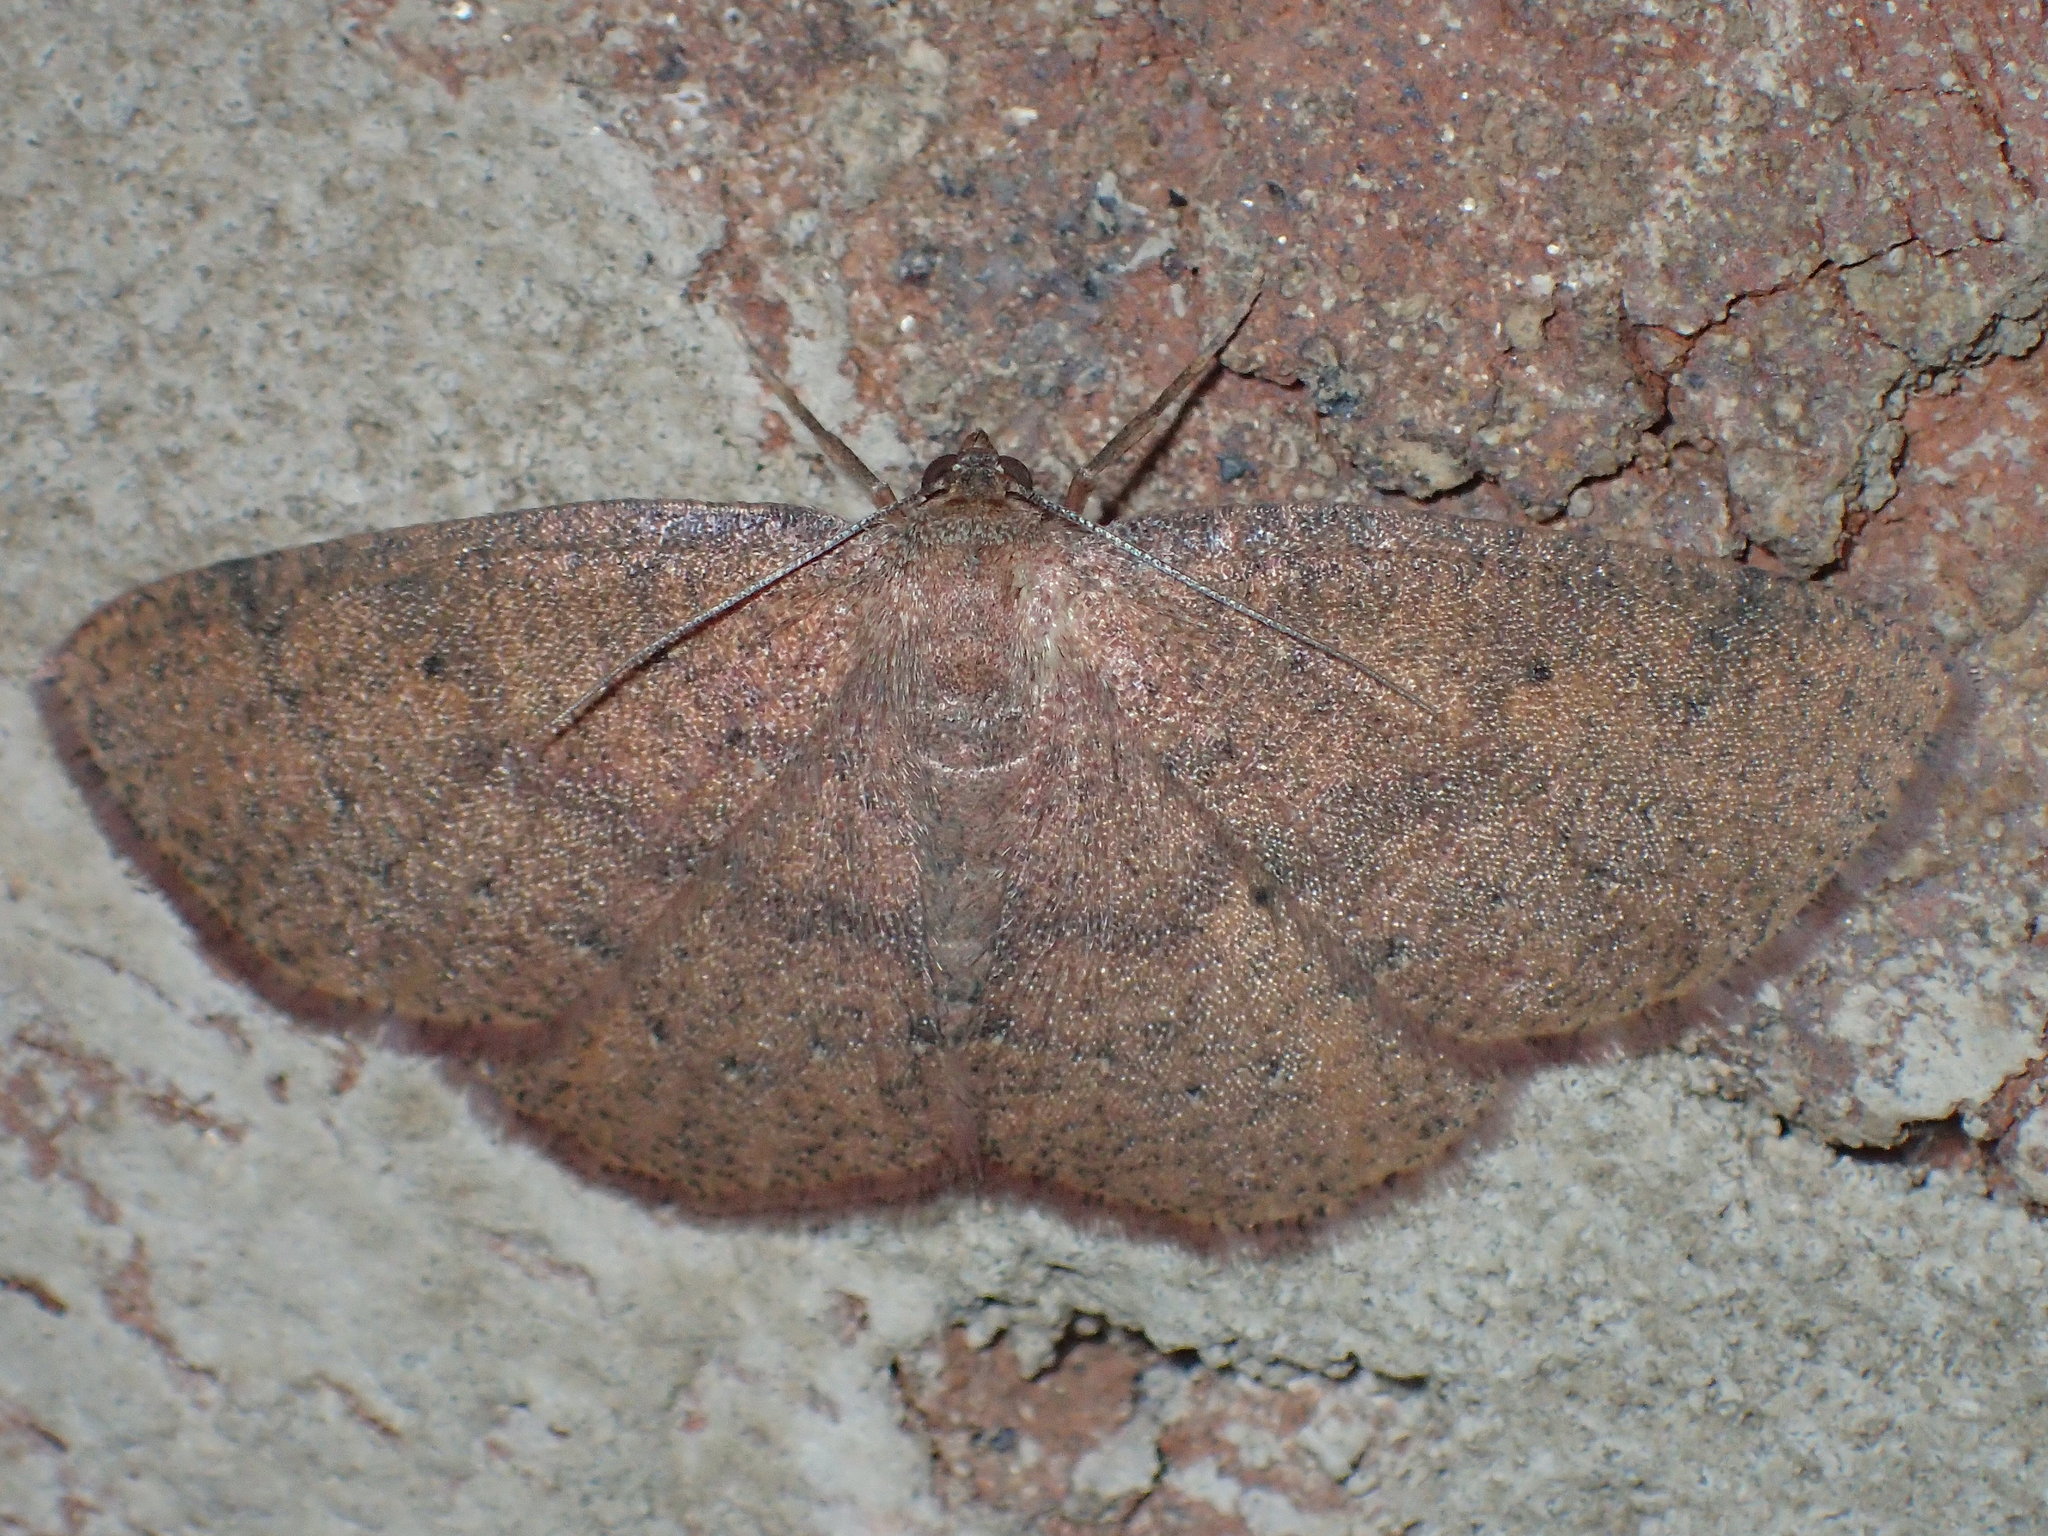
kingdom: Animalia
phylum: Arthropoda
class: Insecta
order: Lepidoptera
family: Geometridae
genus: Ilexia
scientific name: Ilexia intractata
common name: Black-dotted ruddy moth
